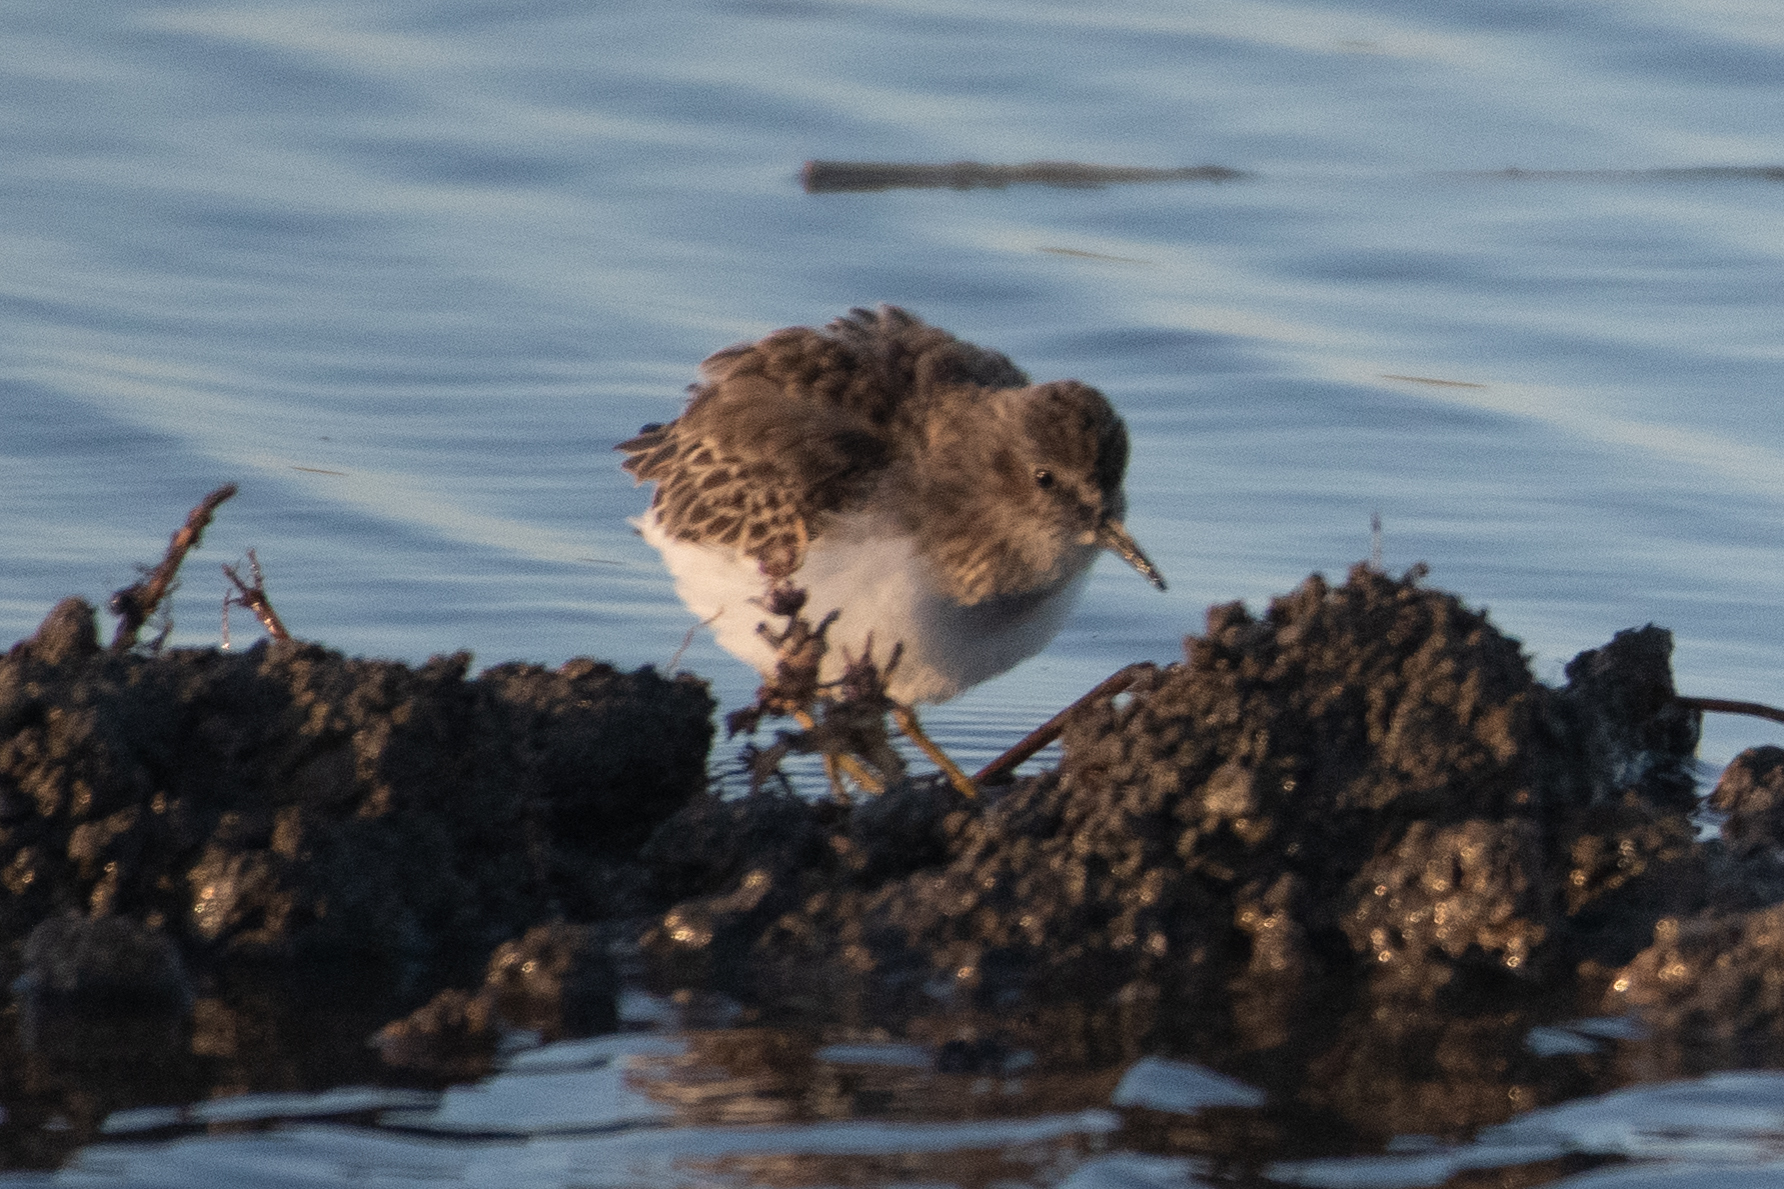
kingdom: Animalia
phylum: Chordata
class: Aves
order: Charadriiformes
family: Scolopacidae
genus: Calidris
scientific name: Calidris minutilla
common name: Least sandpiper
